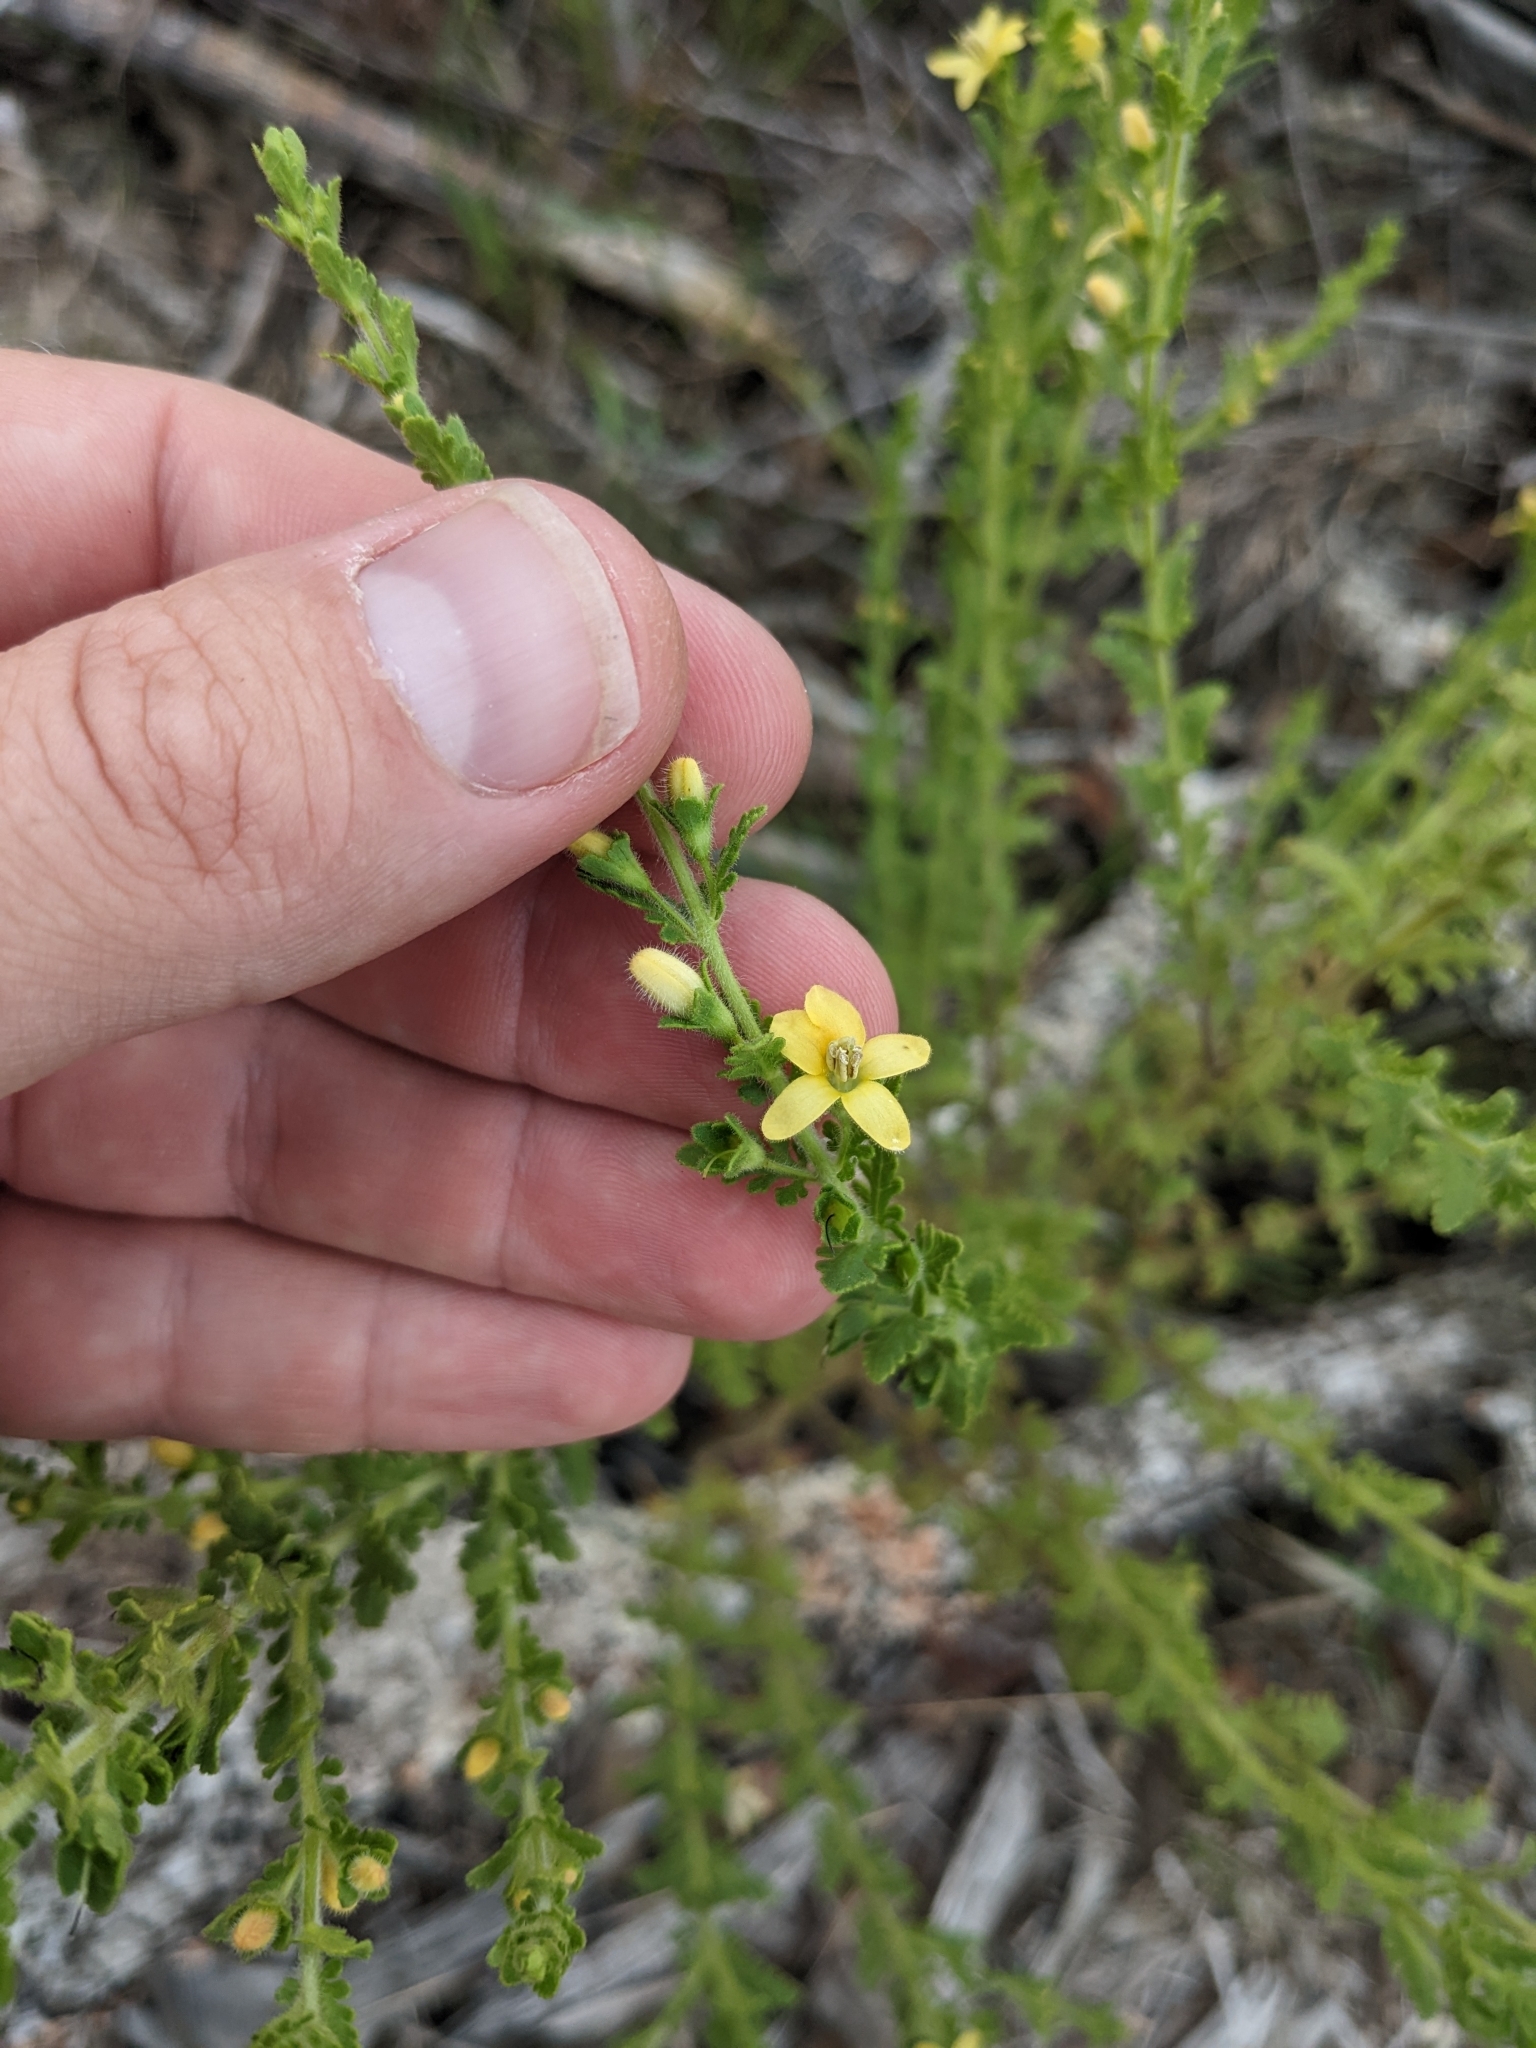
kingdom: Plantae
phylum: Tracheophyta
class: Magnoliopsida
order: Lamiales
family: Orobanchaceae
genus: Seymeria
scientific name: Seymeria bipinnatisecta
